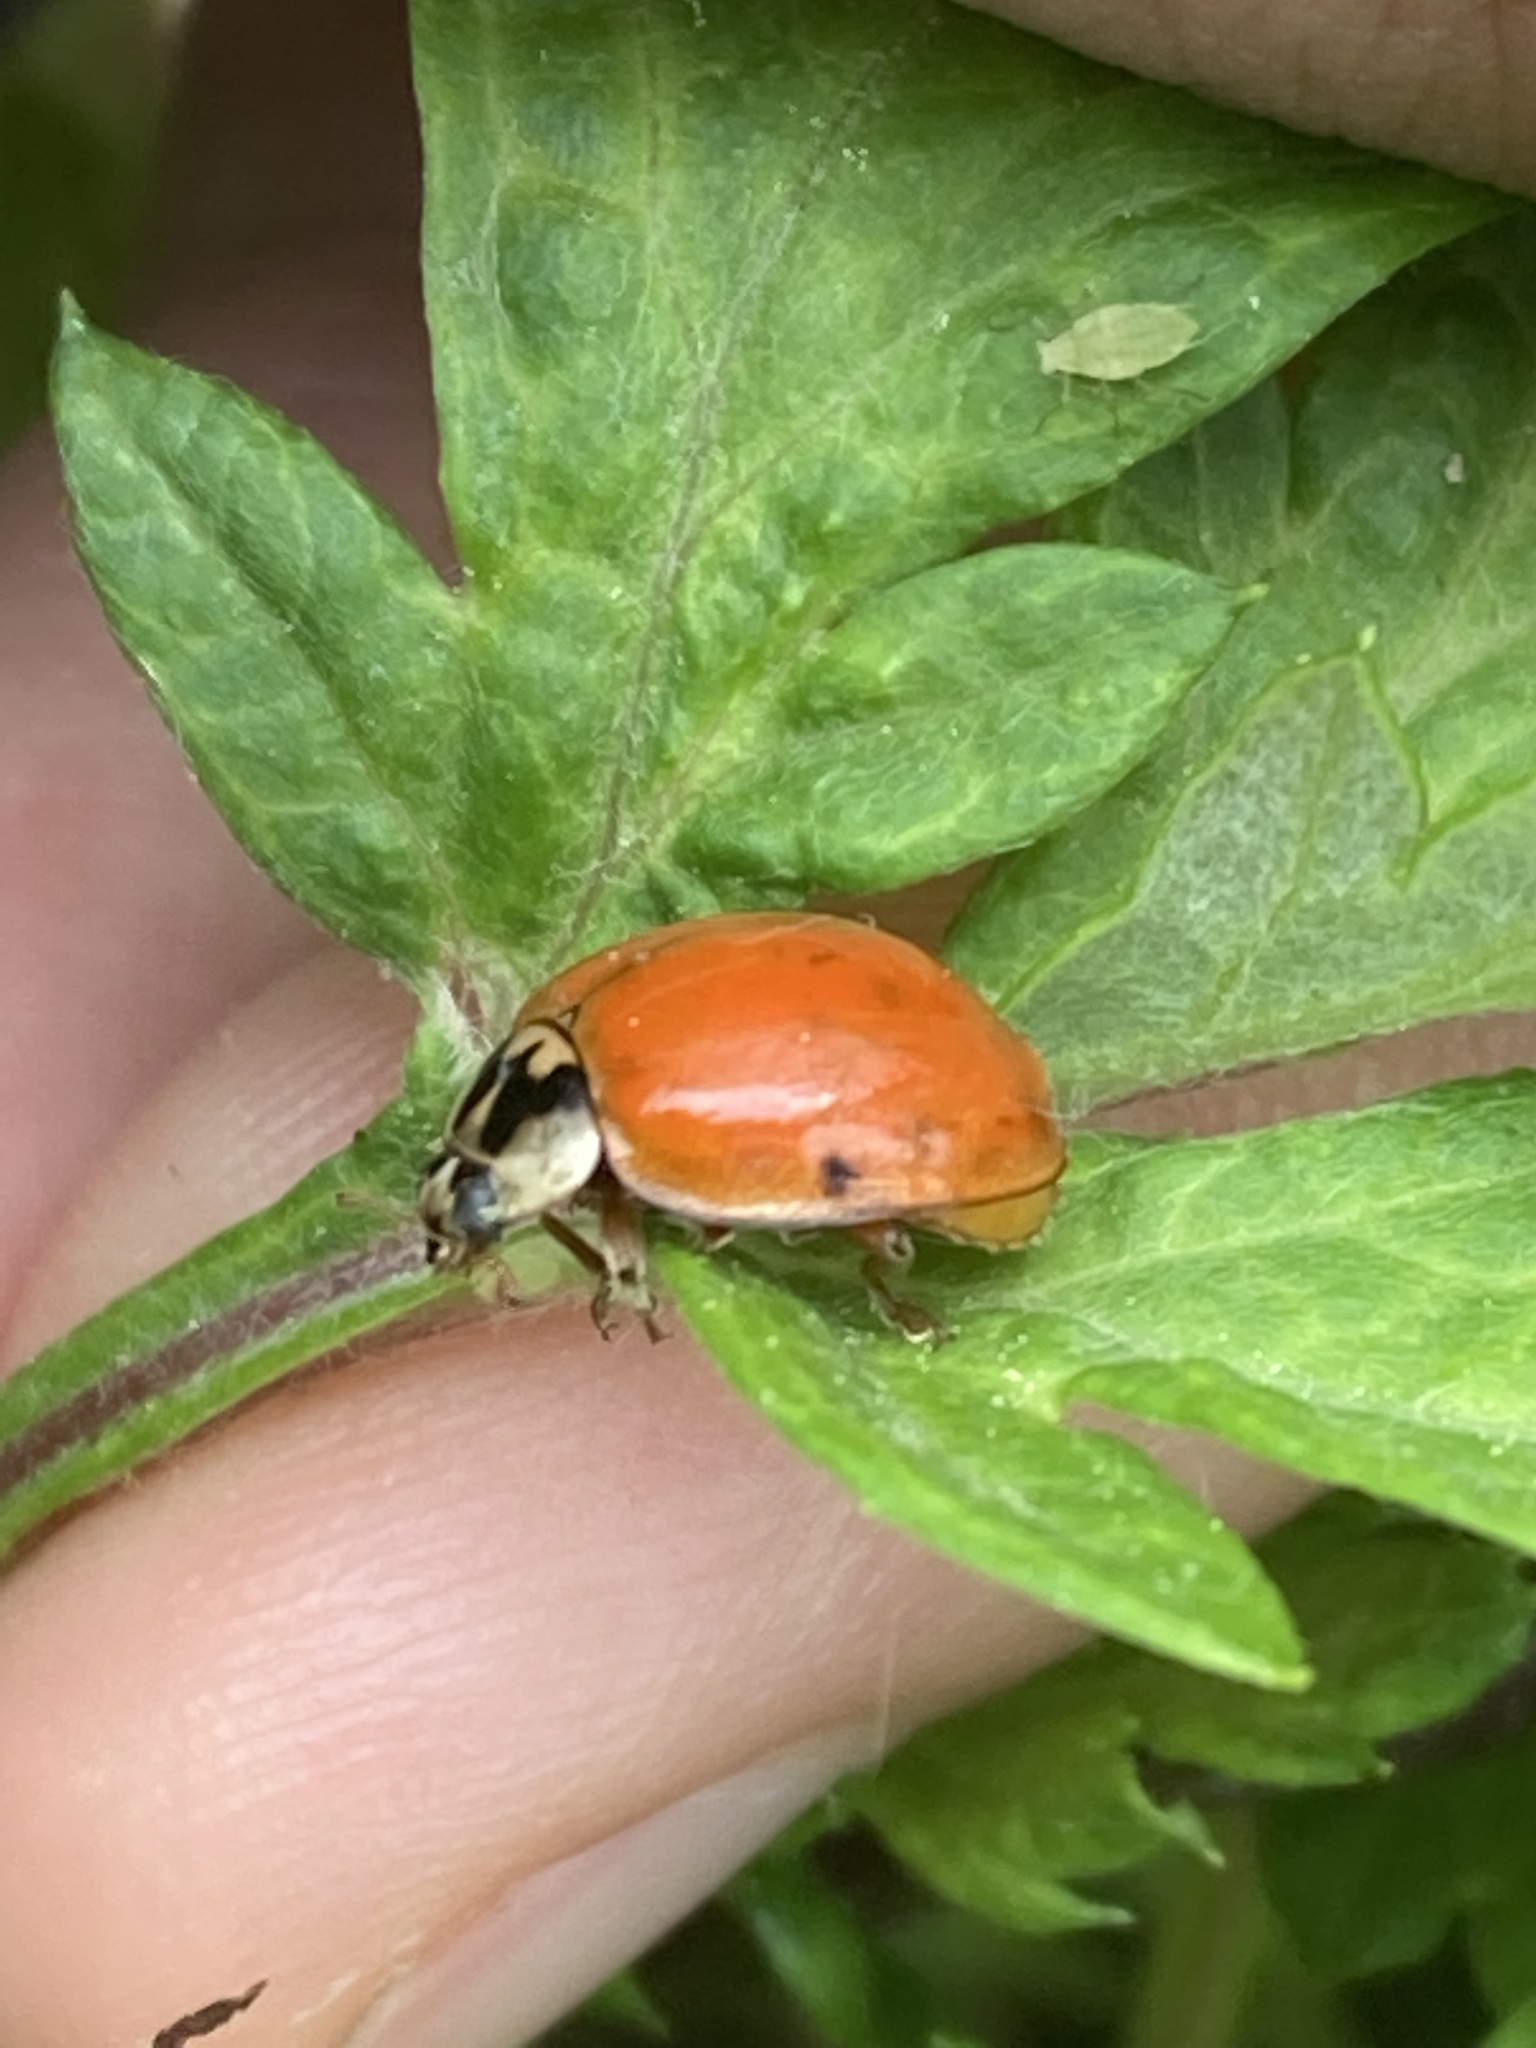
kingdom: Animalia
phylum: Arthropoda
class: Insecta
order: Coleoptera
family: Coccinellidae
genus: Harmonia
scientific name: Harmonia axyridis
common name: Harlequin ladybird
